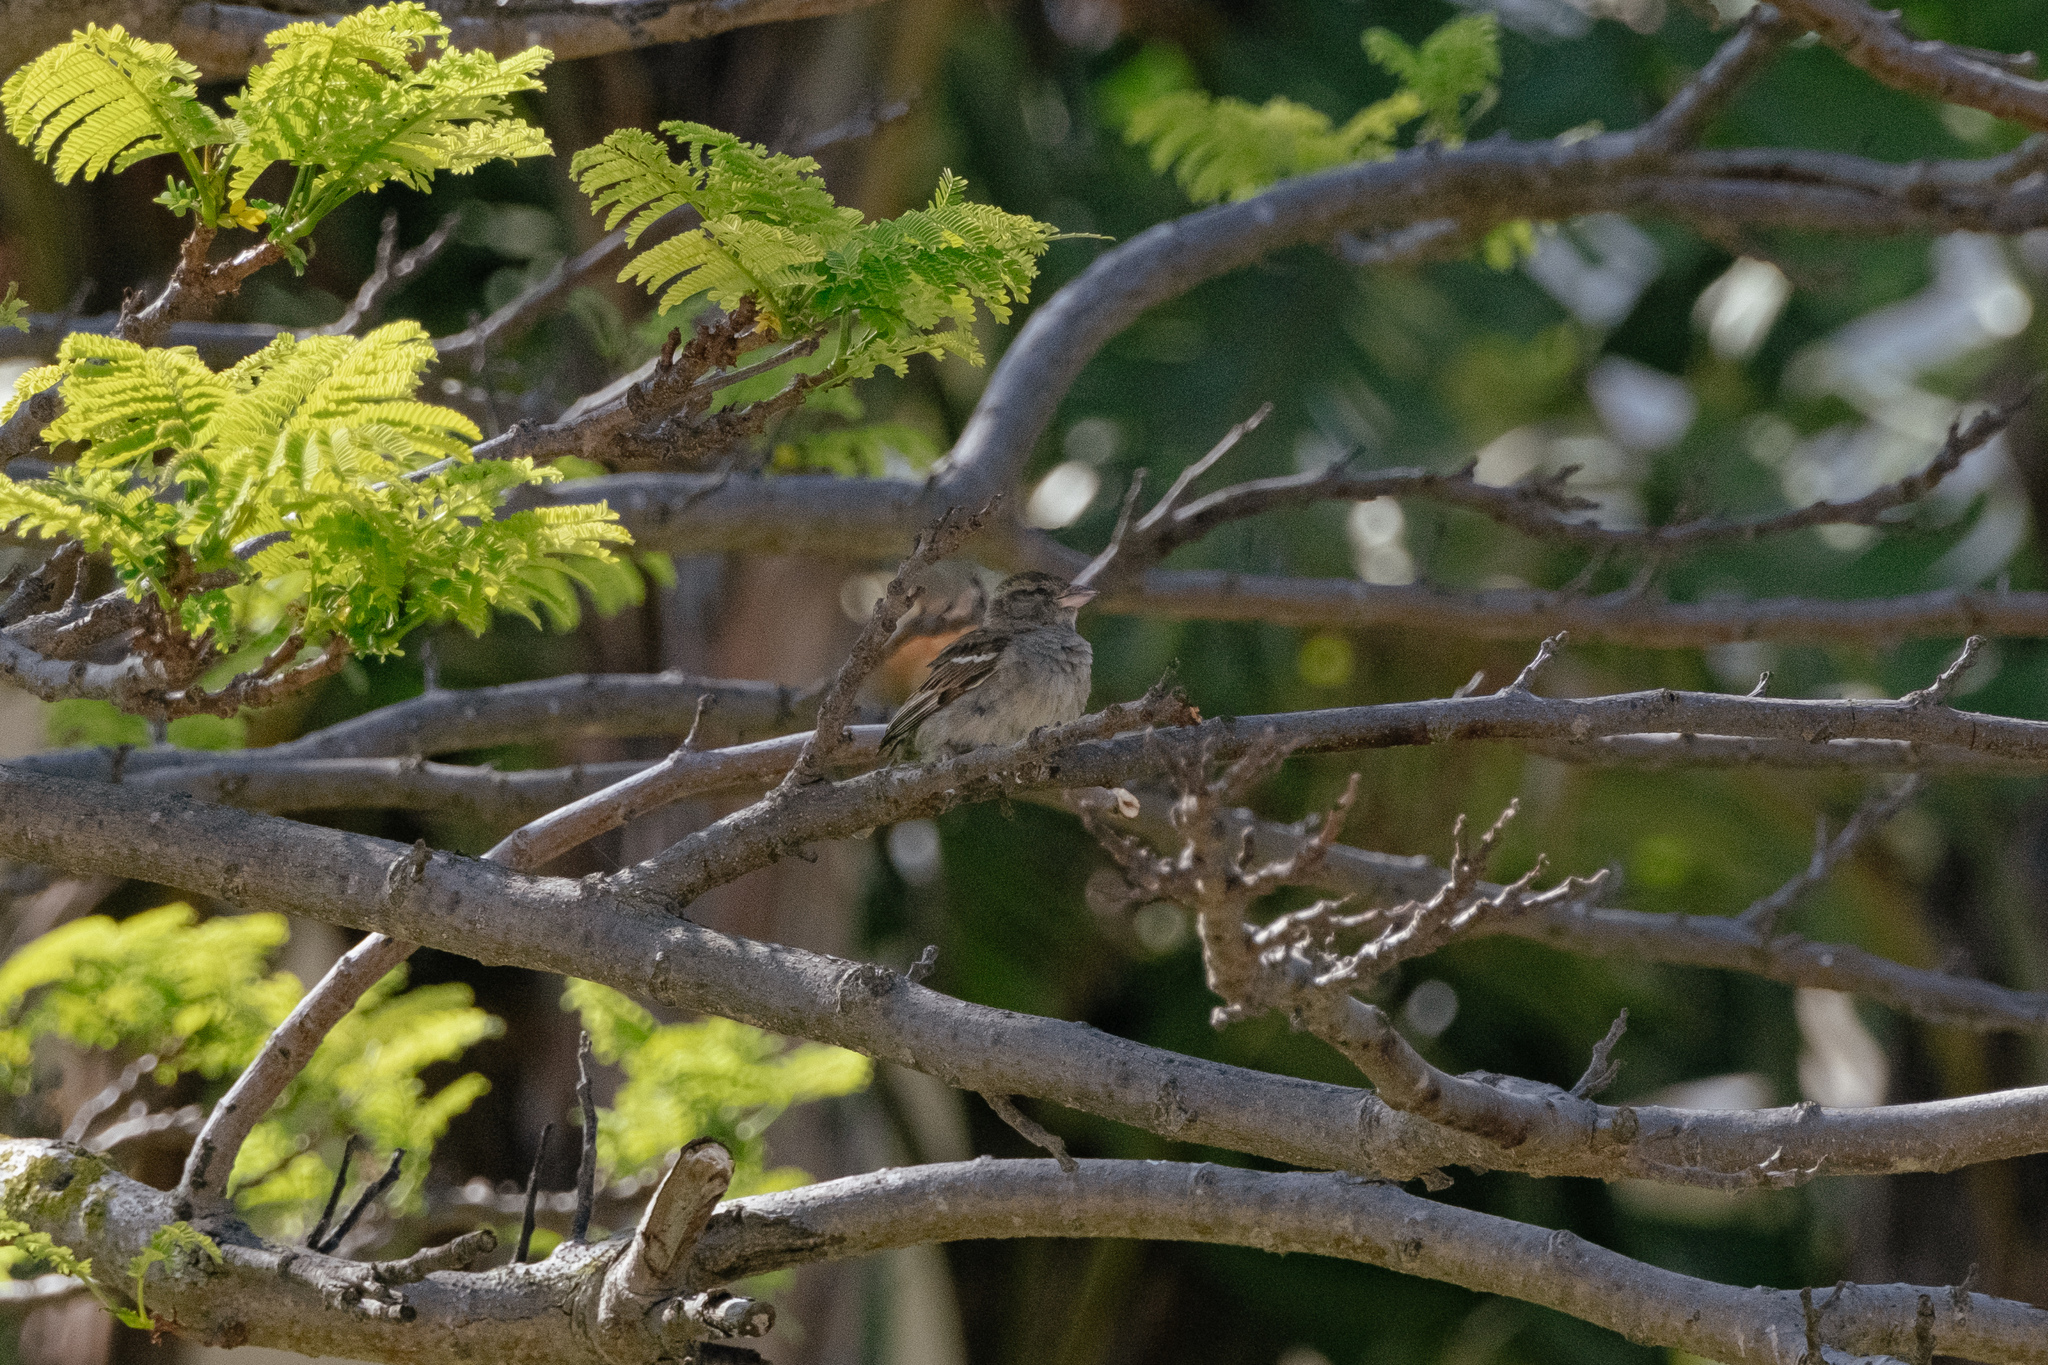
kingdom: Animalia
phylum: Chordata
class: Aves
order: Passeriformes
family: Passeridae
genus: Passer
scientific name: Passer domesticus
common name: House sparrow
